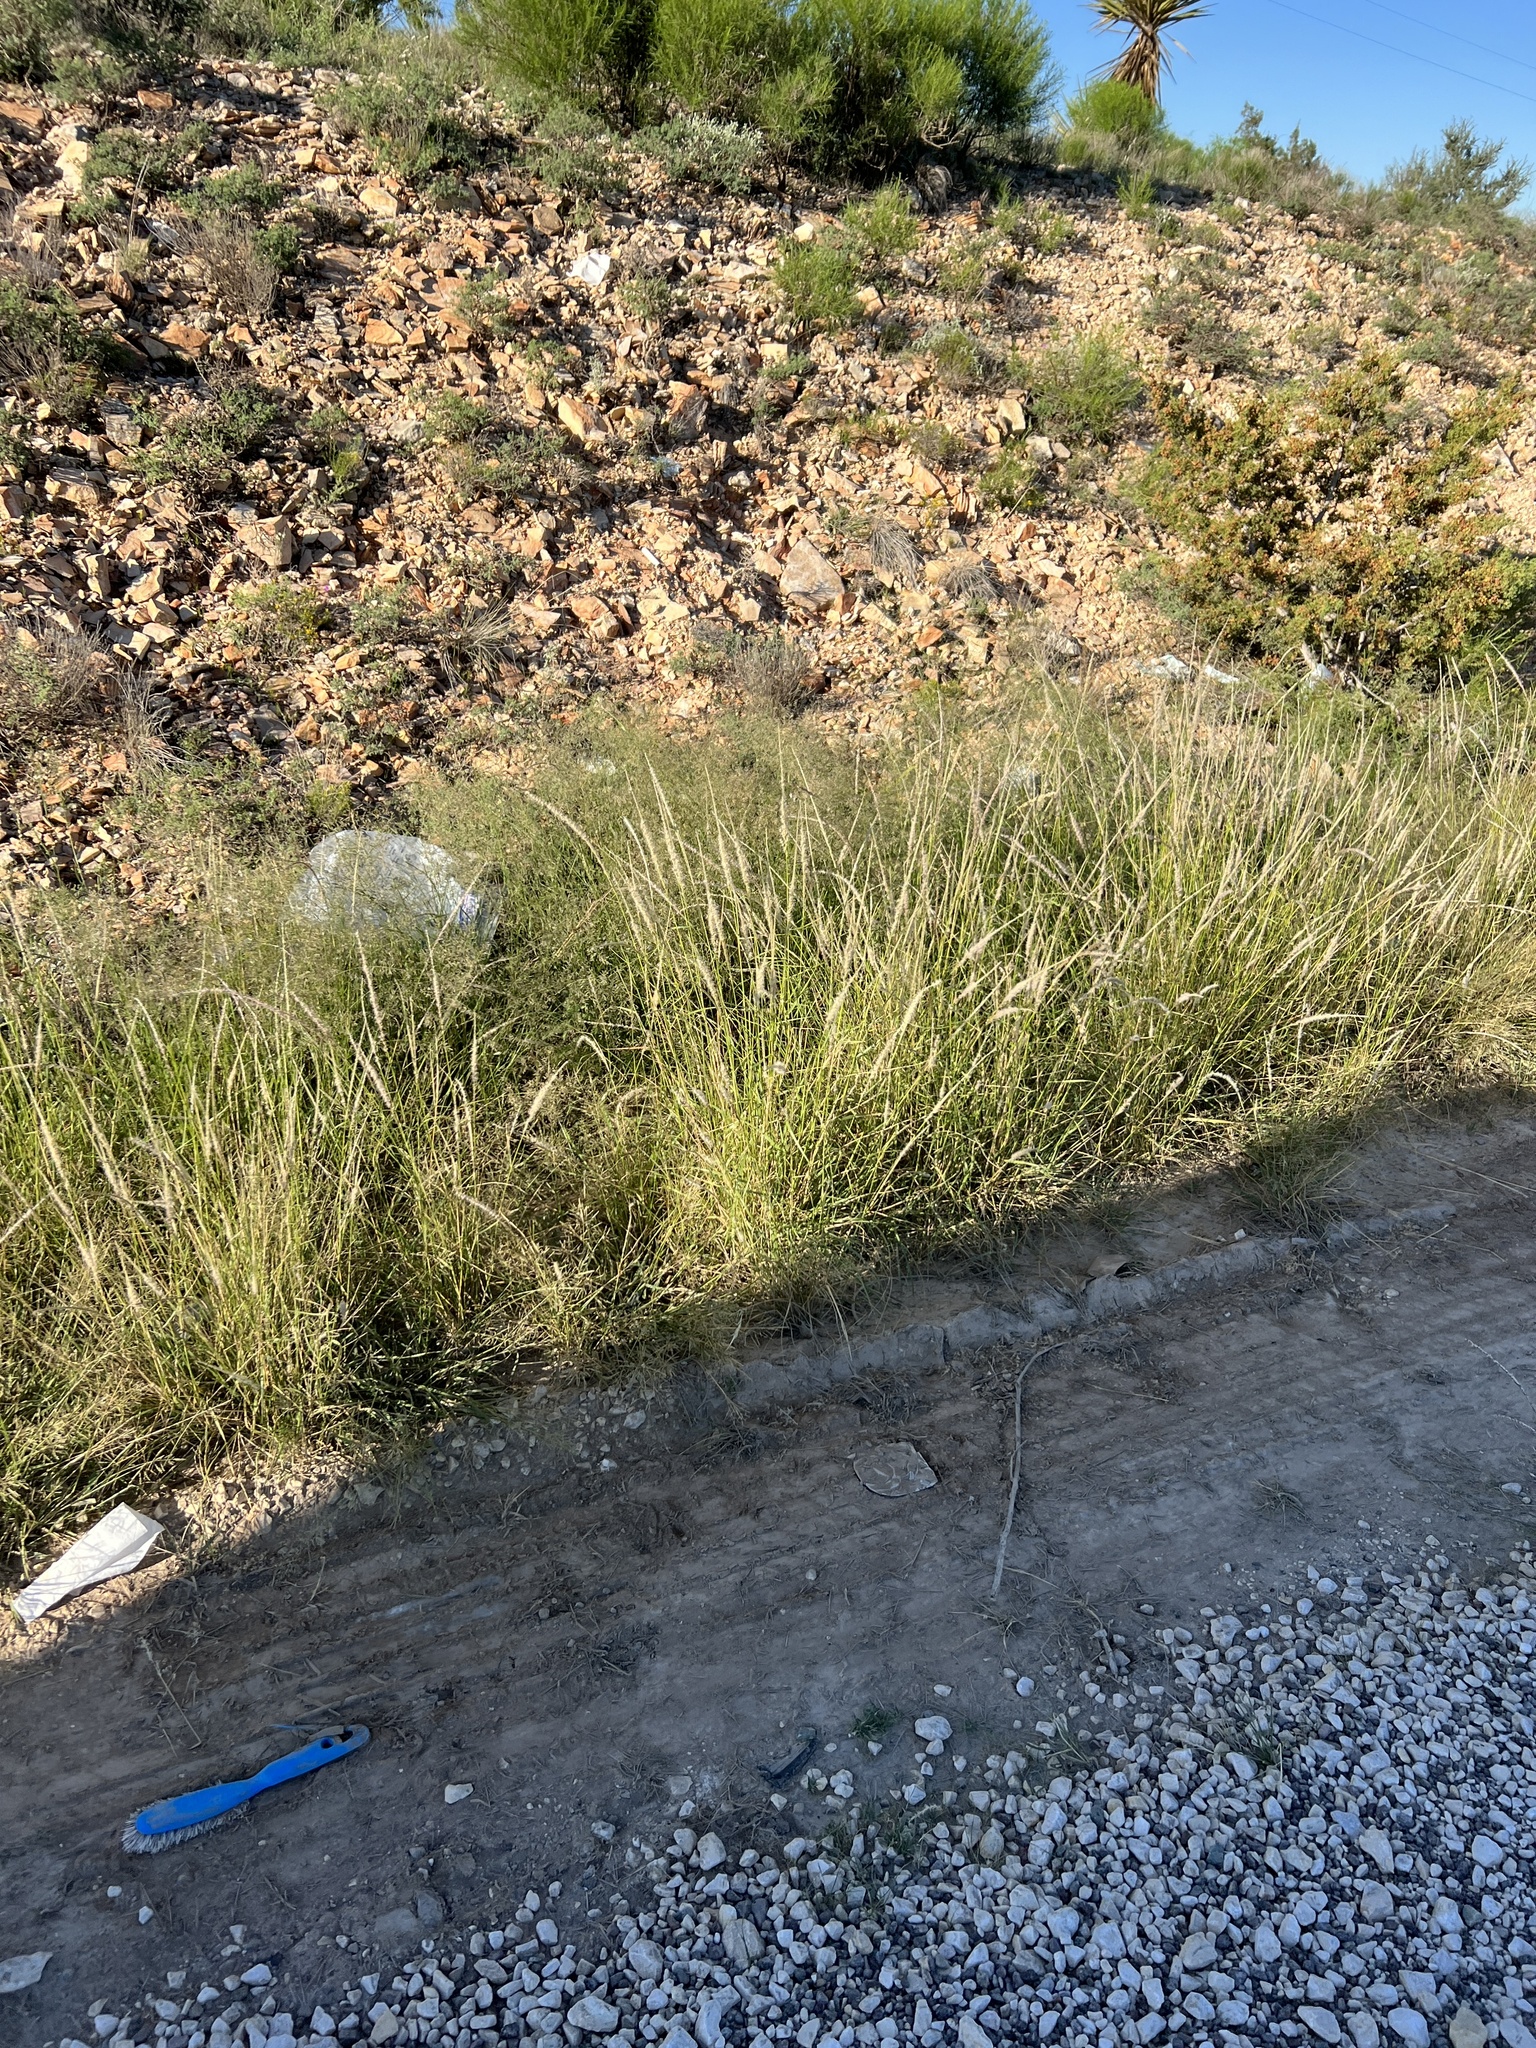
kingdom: Plantae
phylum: Tracheophyta
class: Liliopsida
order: Poales
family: Poaceae
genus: Pappophorum
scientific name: Pappophorum
